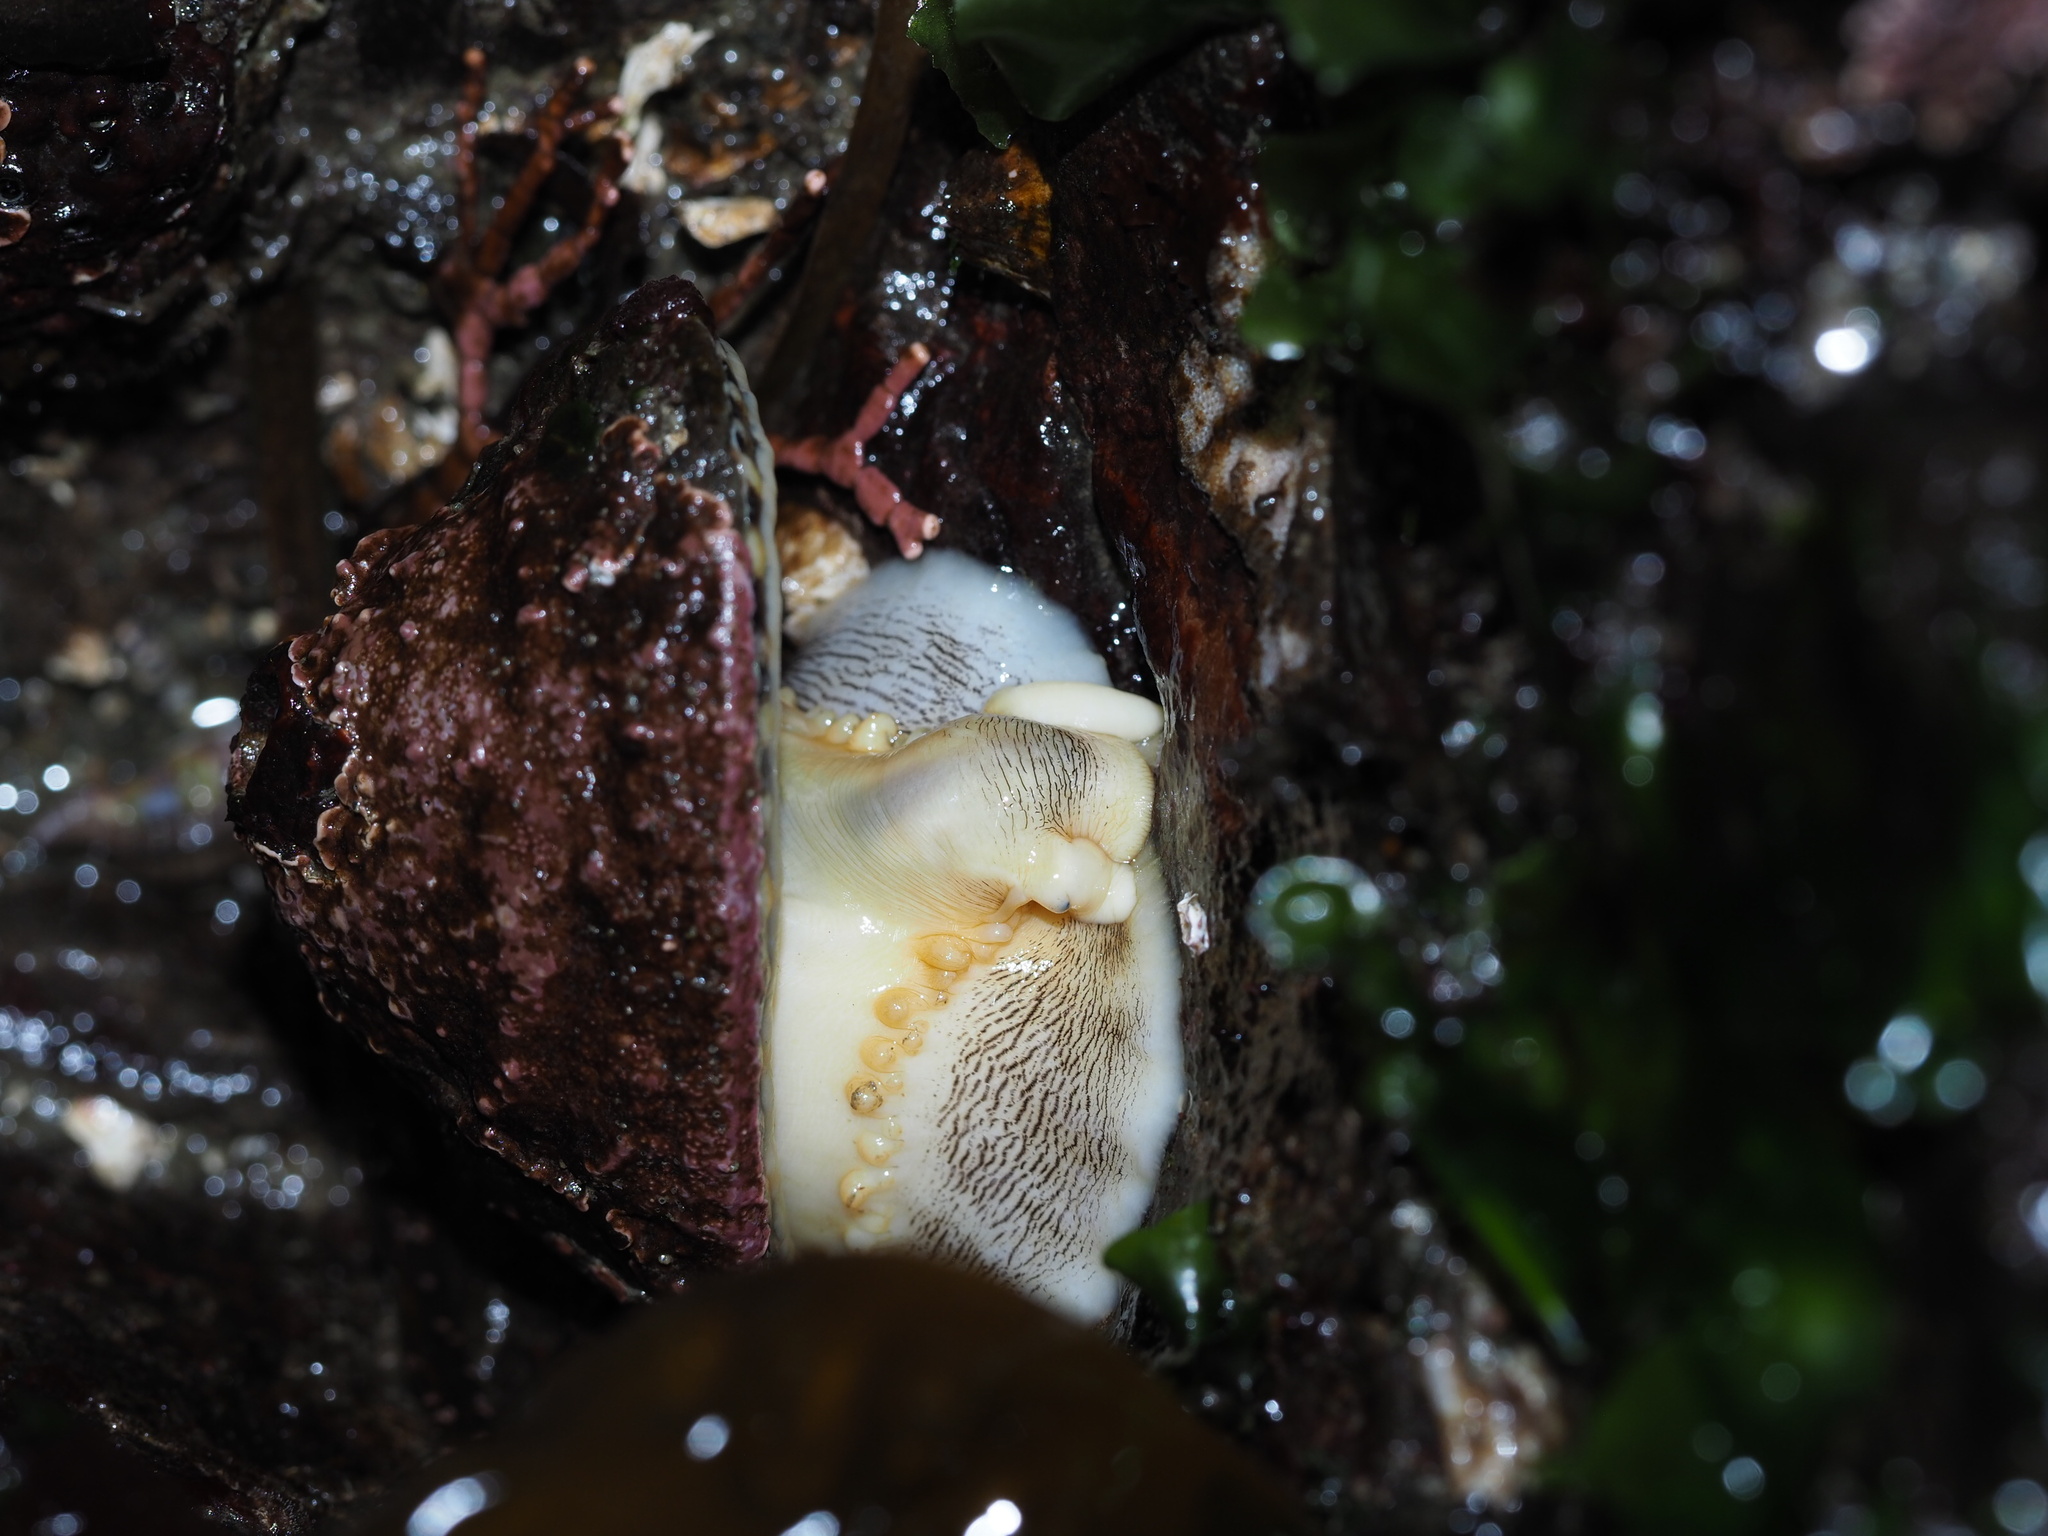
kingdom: Animalia
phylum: Mollusca
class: Gastropoda
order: Lepetellida
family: Fissurellidae
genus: Diodora
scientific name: Diodora aspera
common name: Rough keyhole limpet
